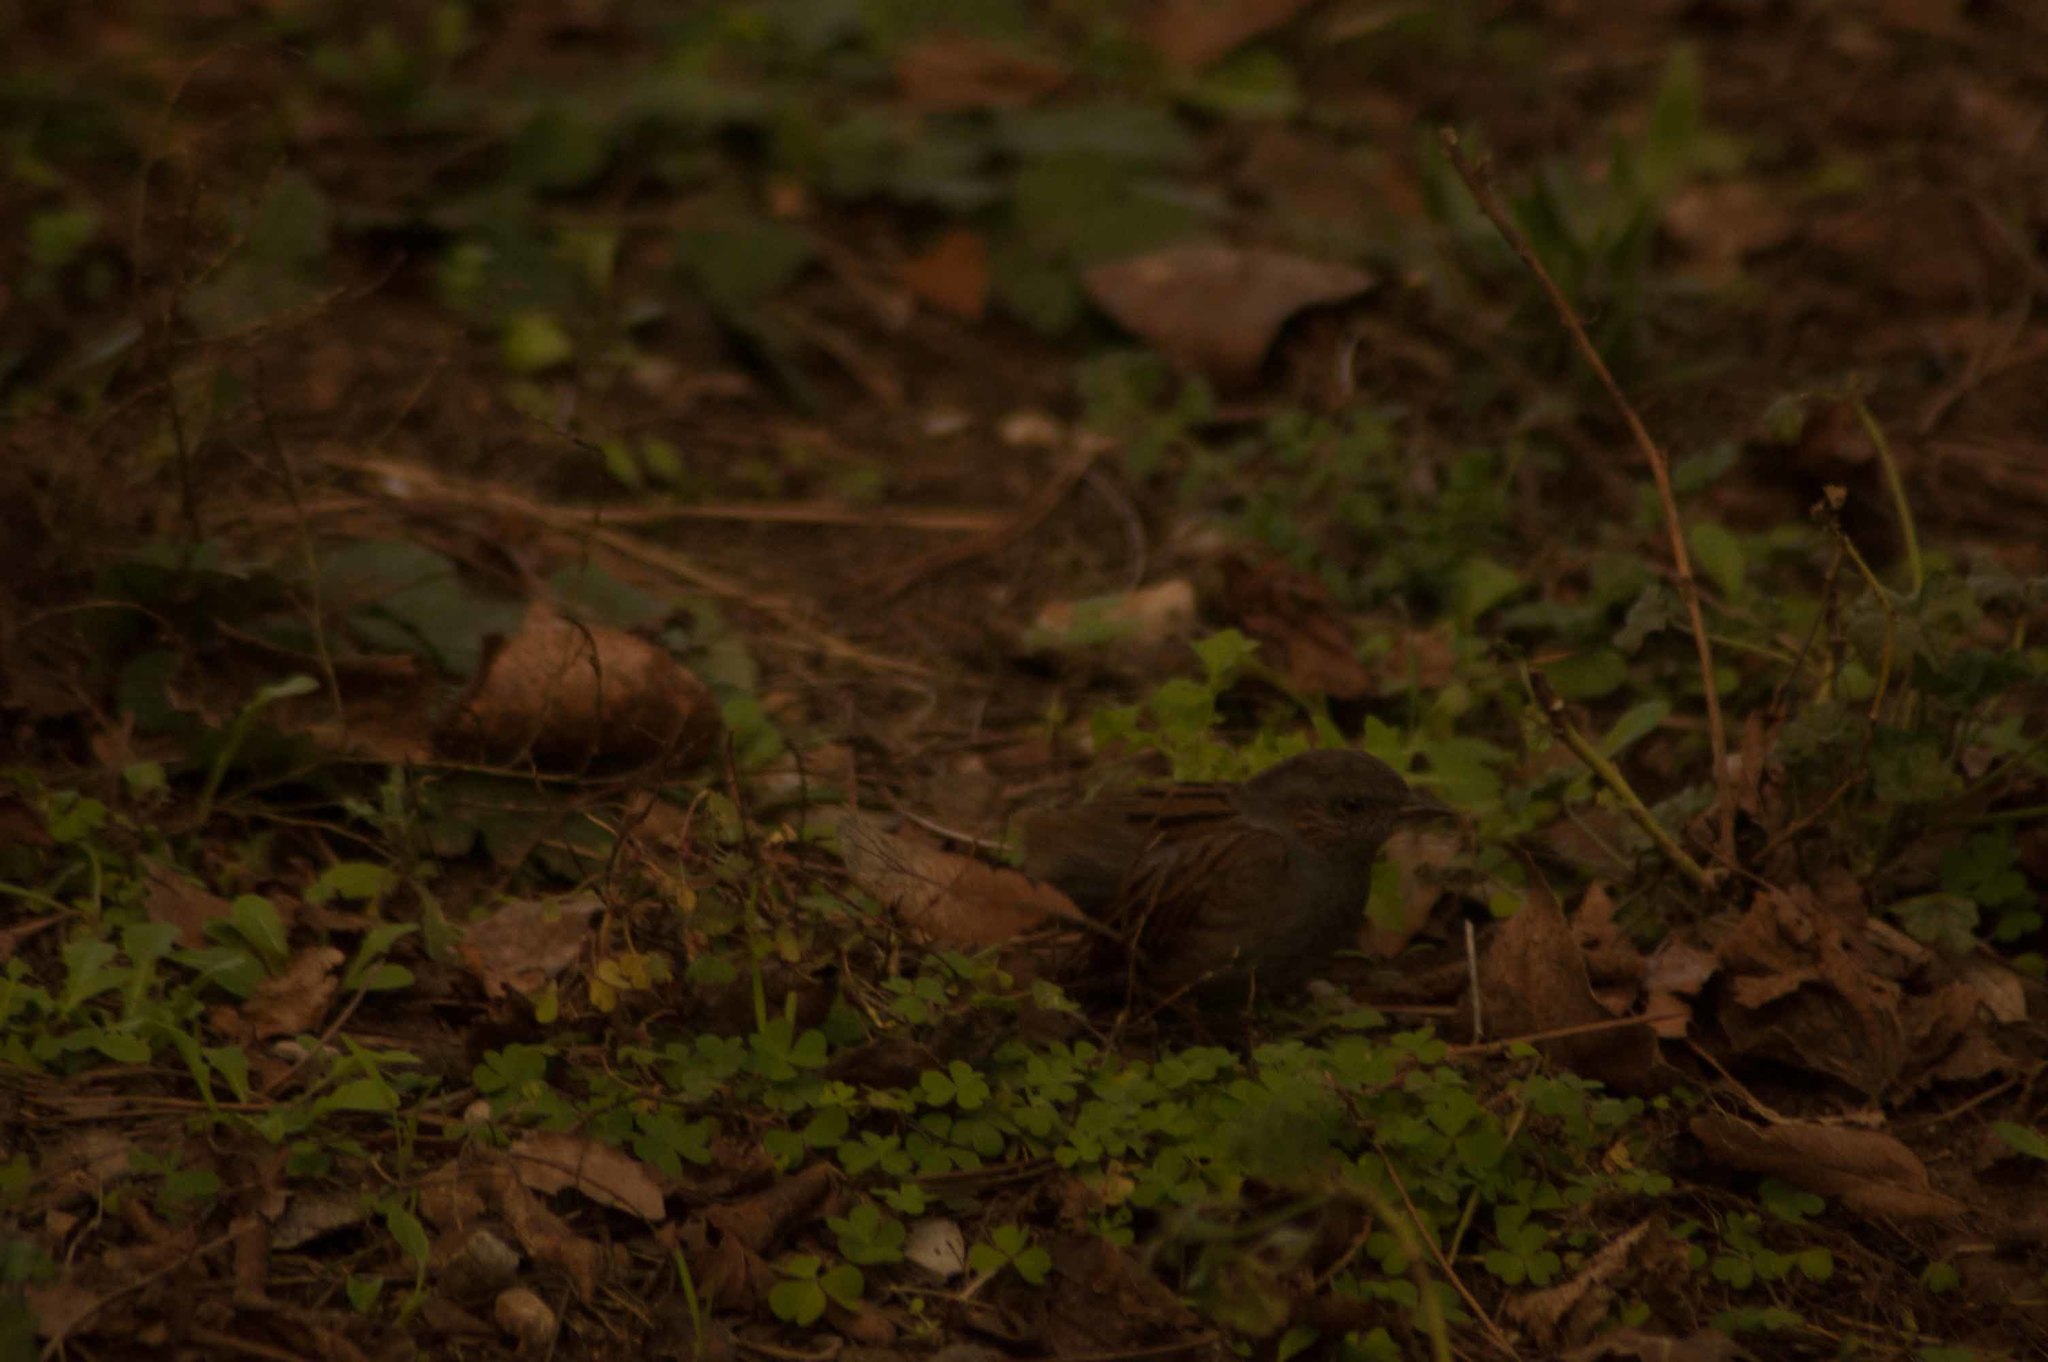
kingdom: Animalia
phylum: Chordata
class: Aves
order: Passeriformes
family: Prunellidae
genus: Prunella
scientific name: Prunella modularis
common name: Dunnock
